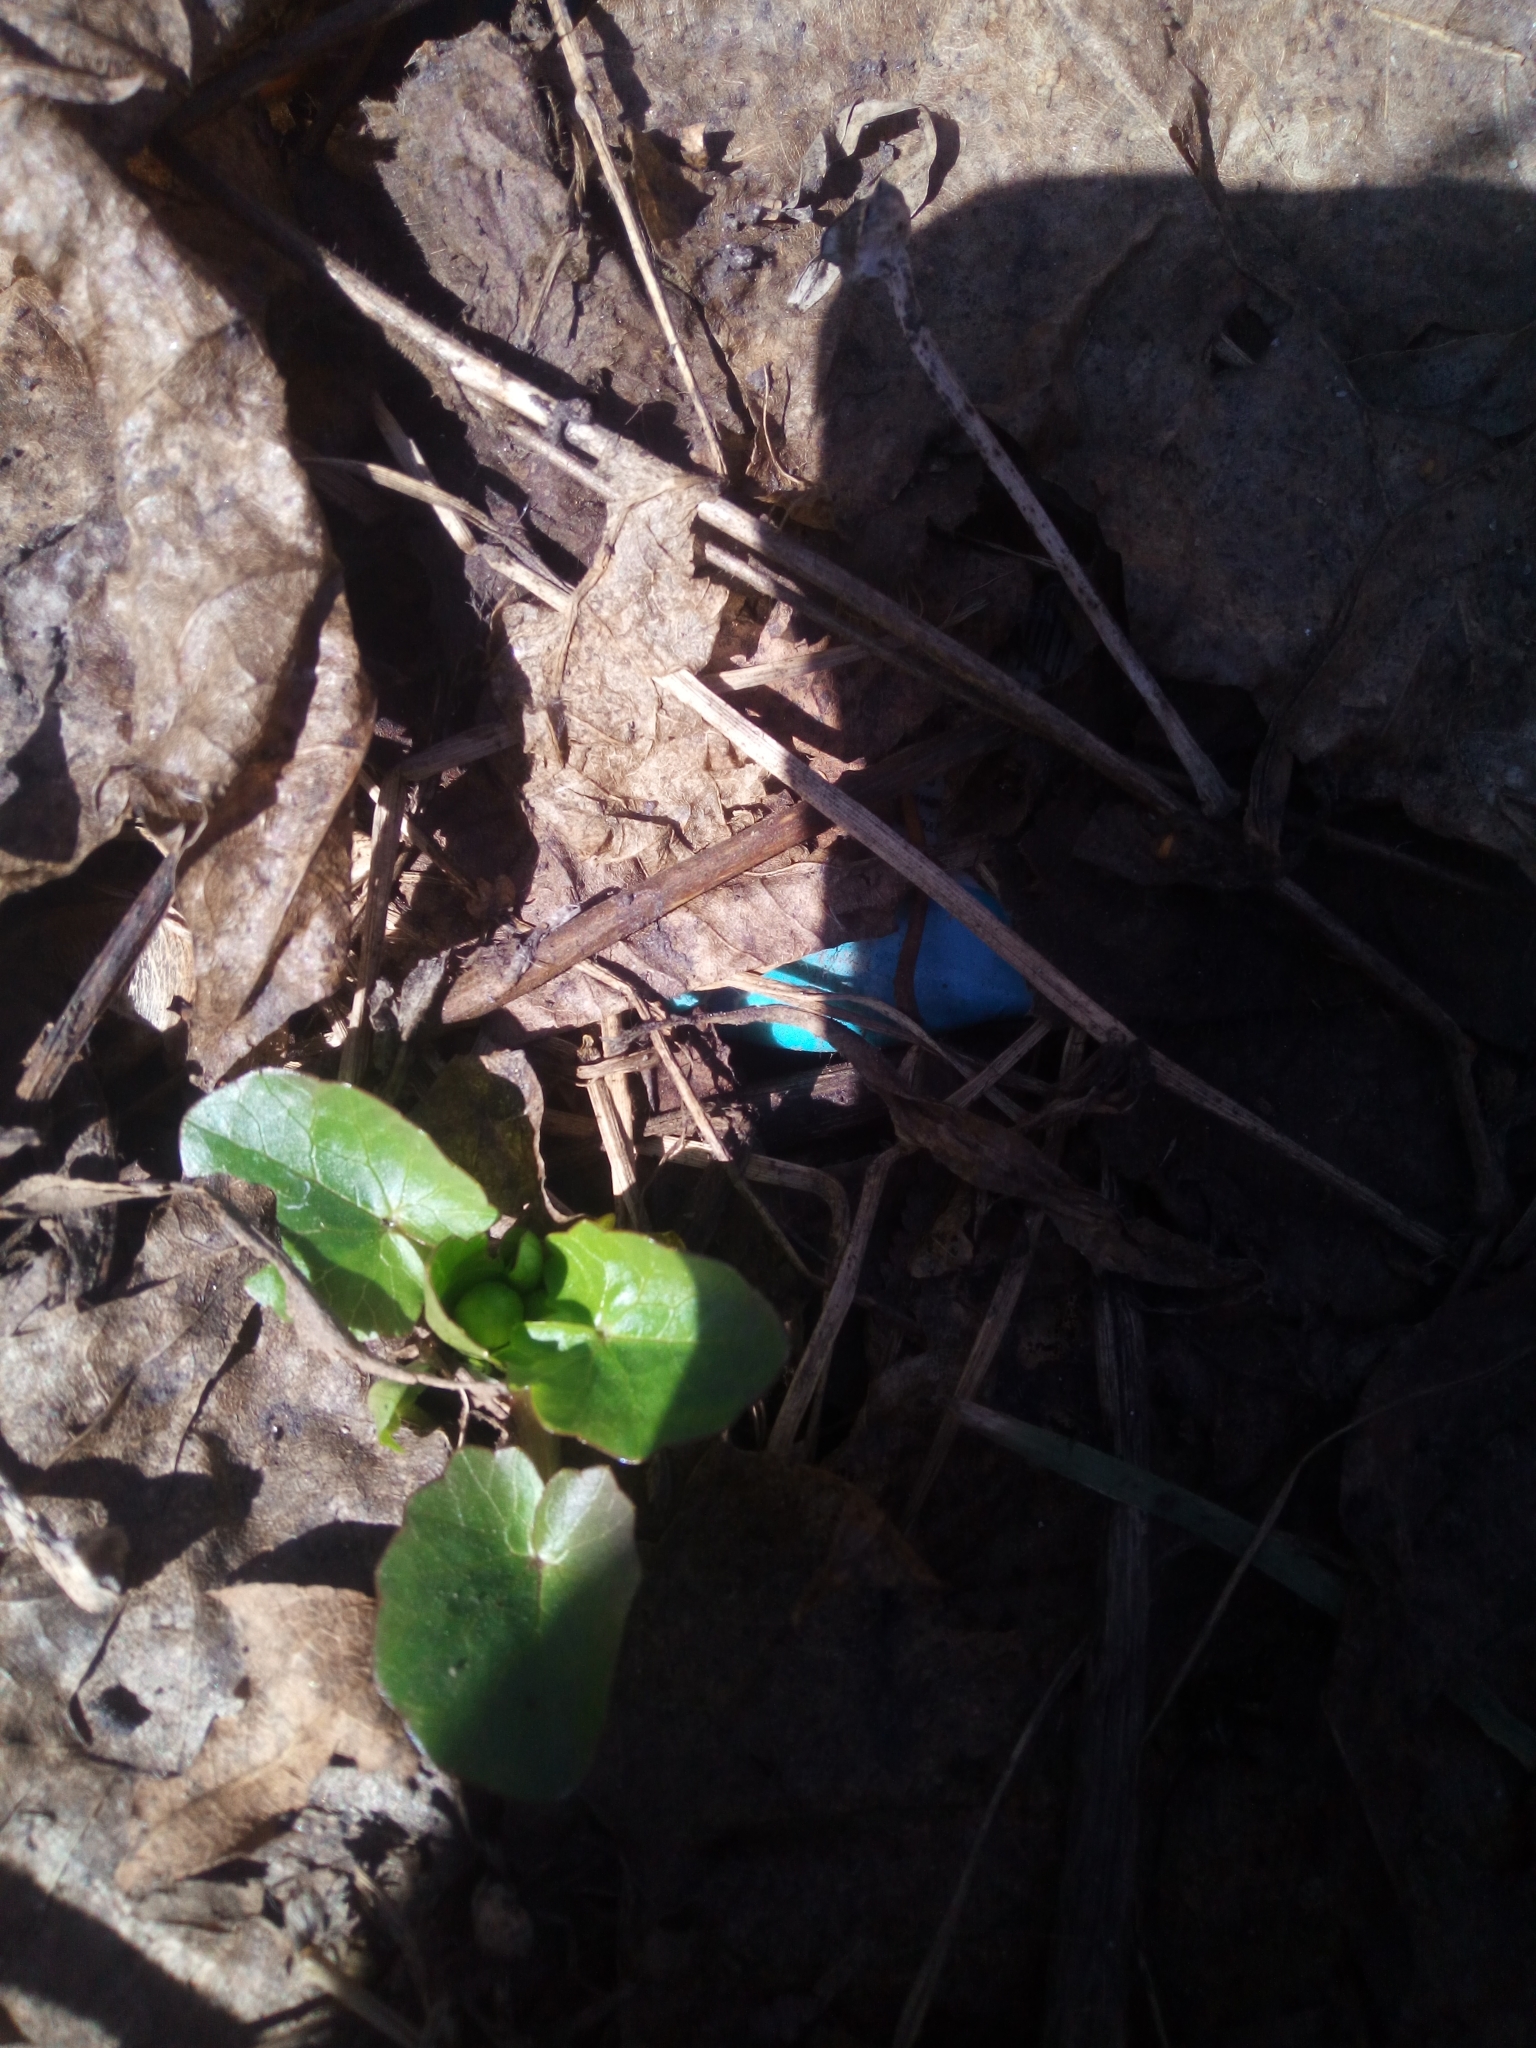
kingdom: Plantae
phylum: Tracheophyta
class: Magnoliopsida
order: Ranunculales
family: Ranunculaceae
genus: Ficaria
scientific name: Ficaria verna
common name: Lesser celandine
